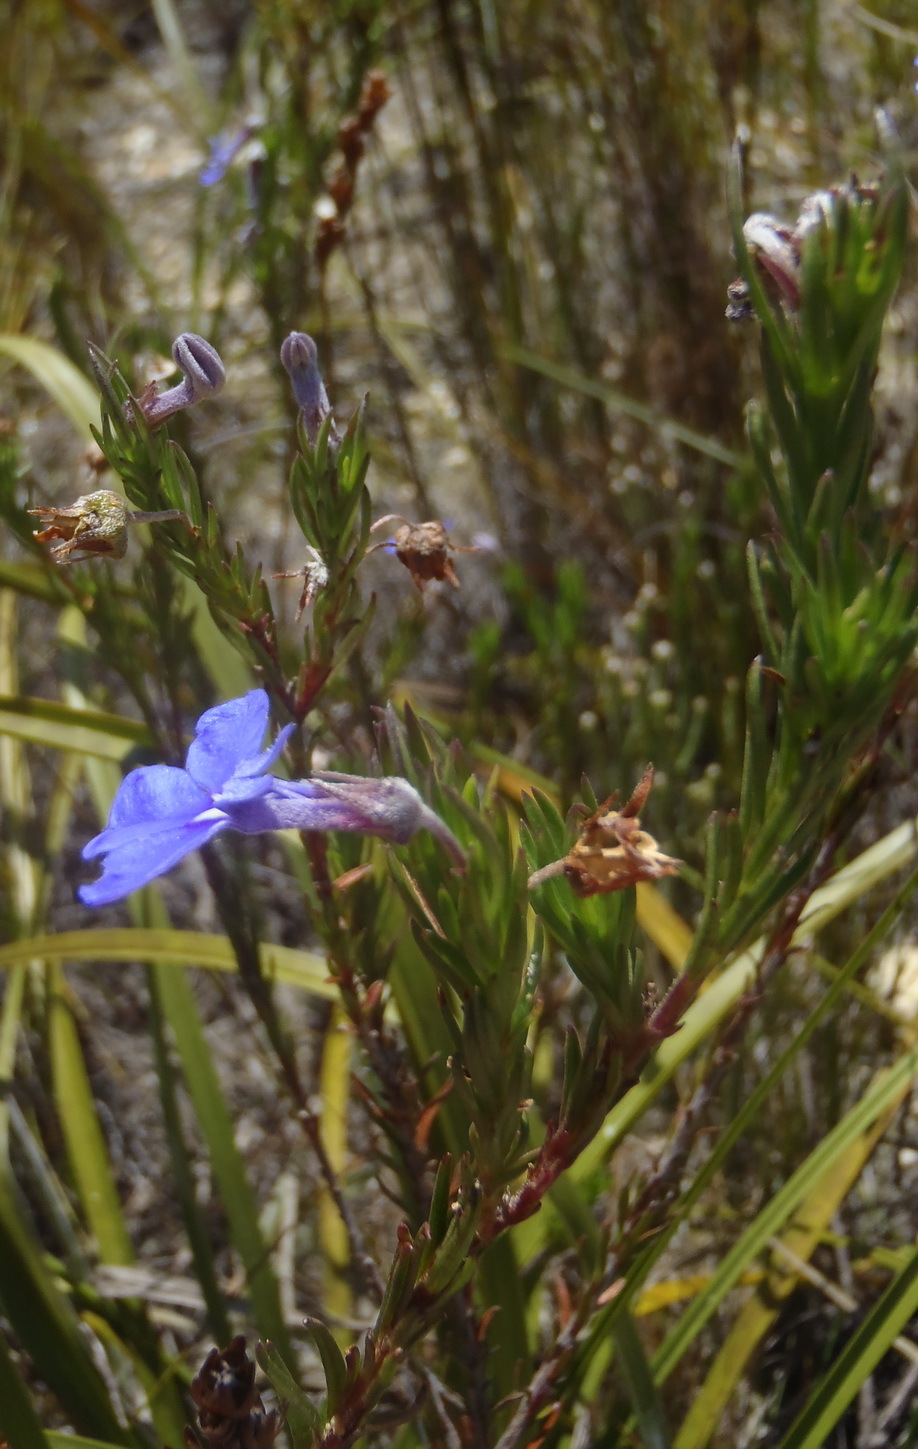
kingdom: Plantae
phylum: Tracheophyta
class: Magnoliopsida
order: Asterales
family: Campanulaceae
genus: Lobelia
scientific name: Lobelia pinifolia
